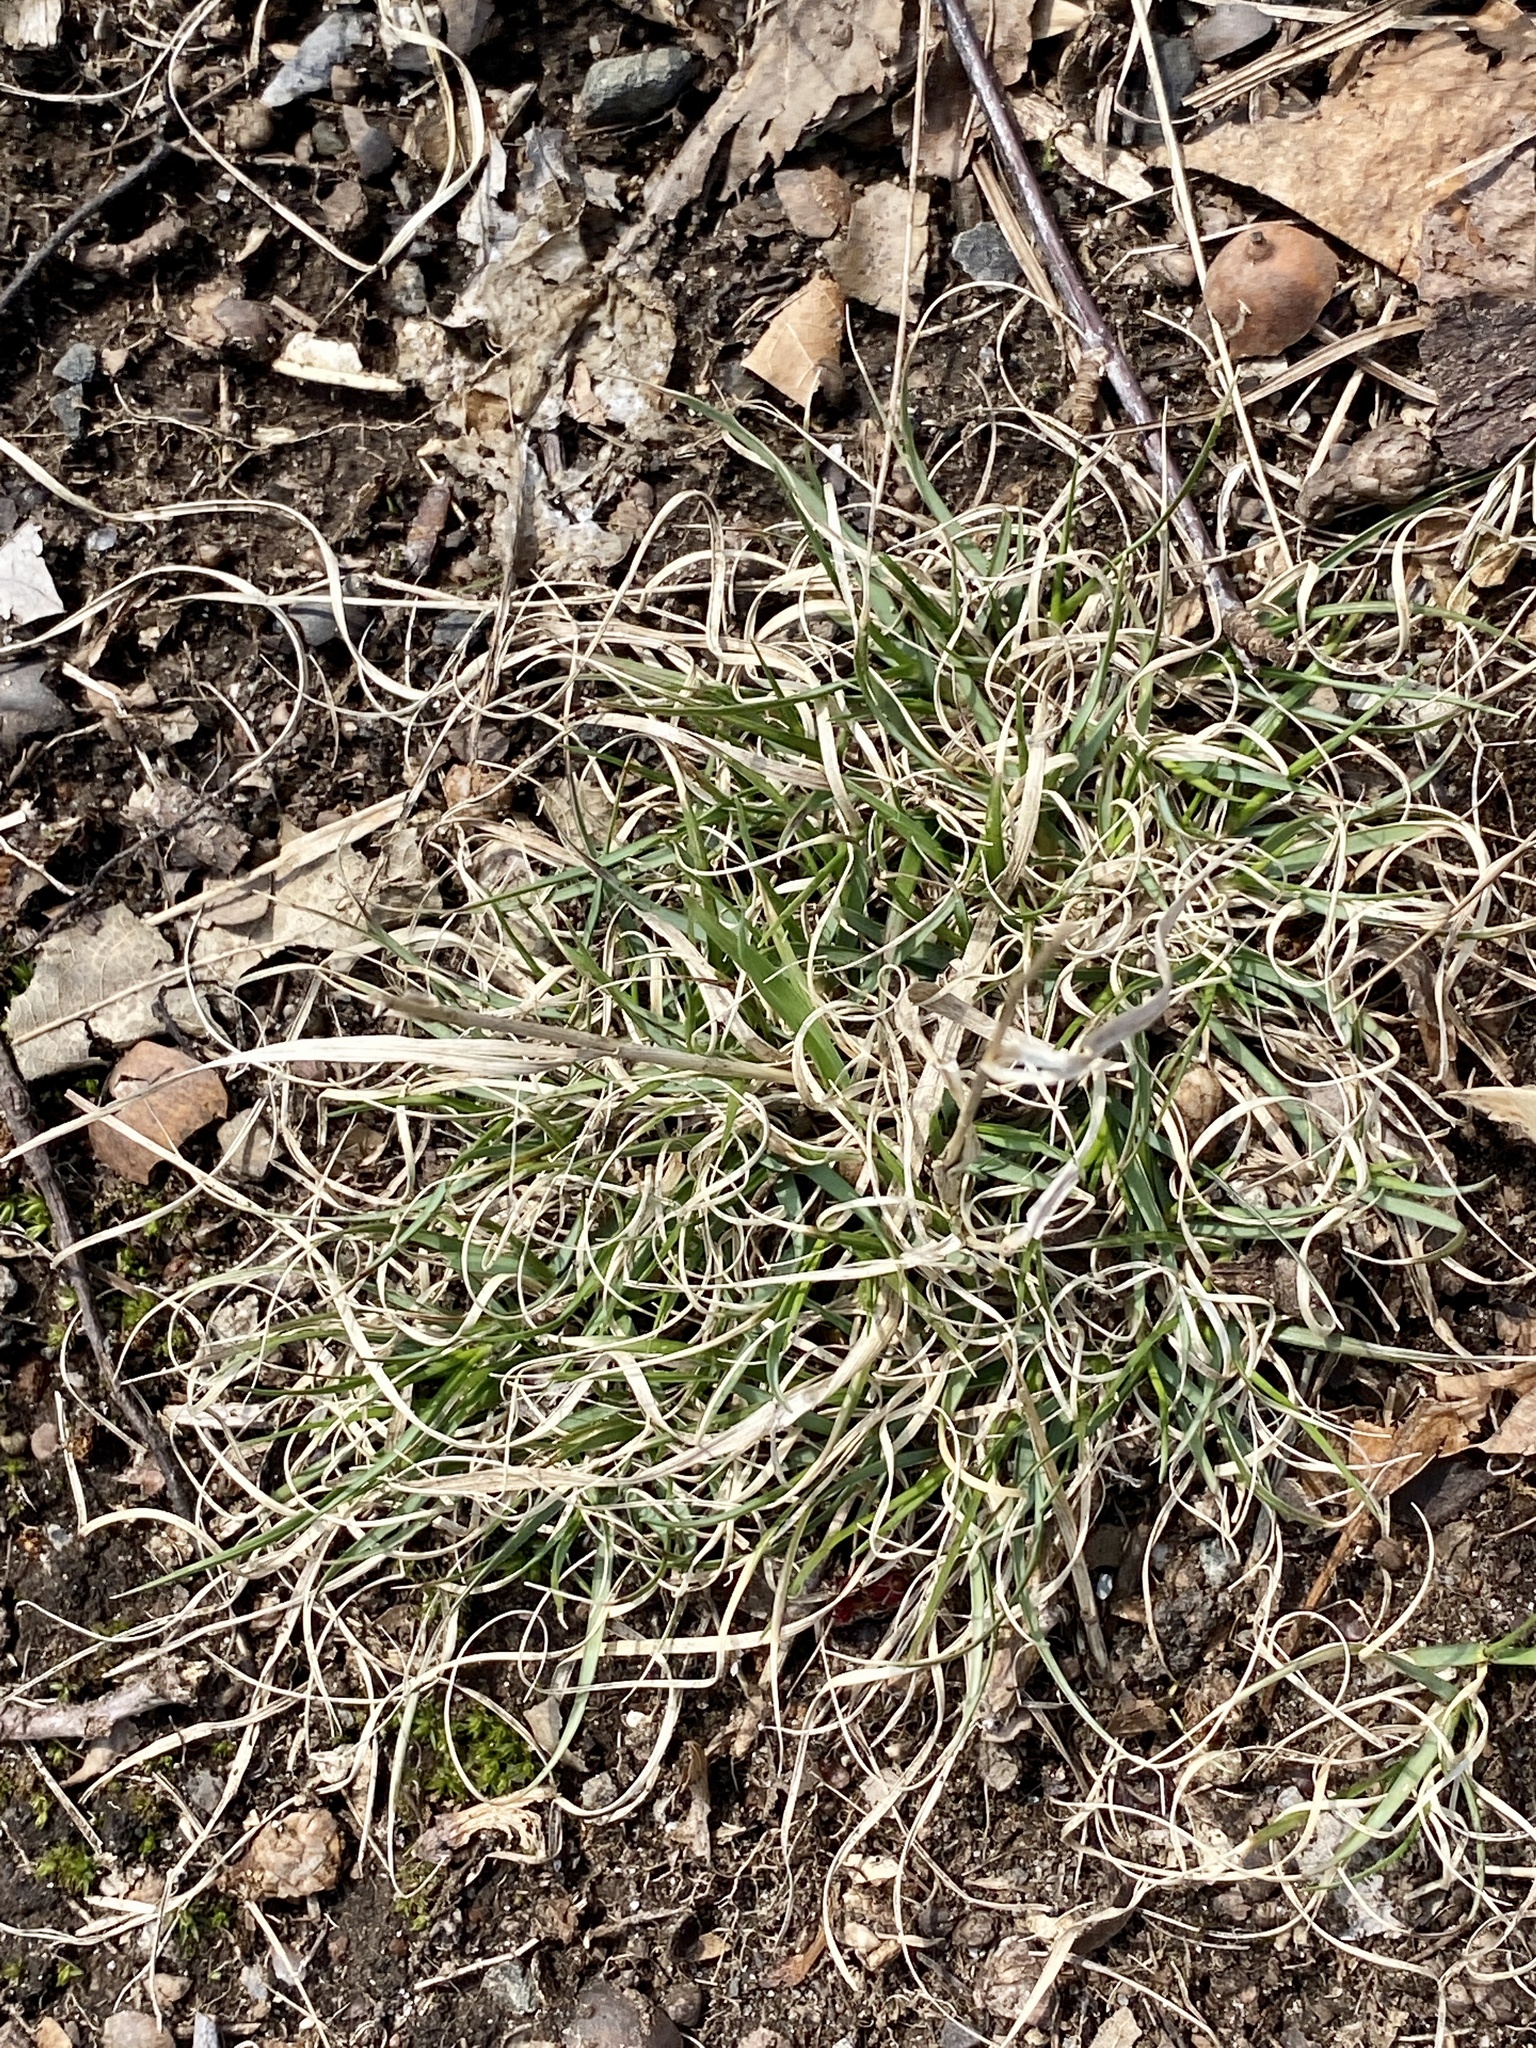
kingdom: Plantae
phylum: Tracheophyta
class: Liliopsida
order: Poales
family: Poaceae
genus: Danthonia
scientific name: Danthonia spicata
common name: Common wild oatgrass
